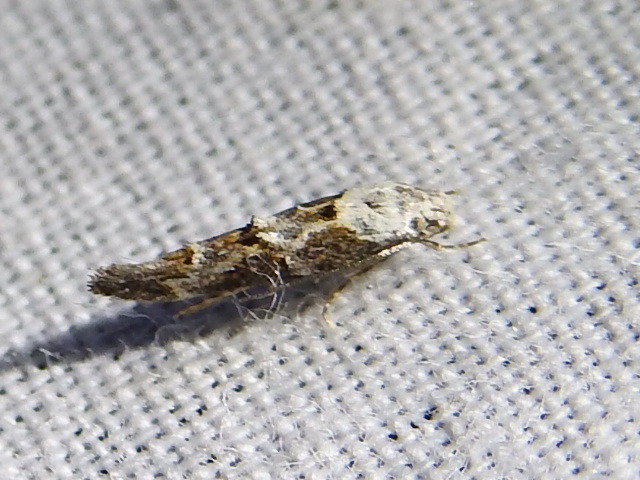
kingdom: Animalia
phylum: Arthropoda
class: Insecta
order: Lepidoptera
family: Momphidae
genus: Mompha
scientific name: Mompha albocapitella
